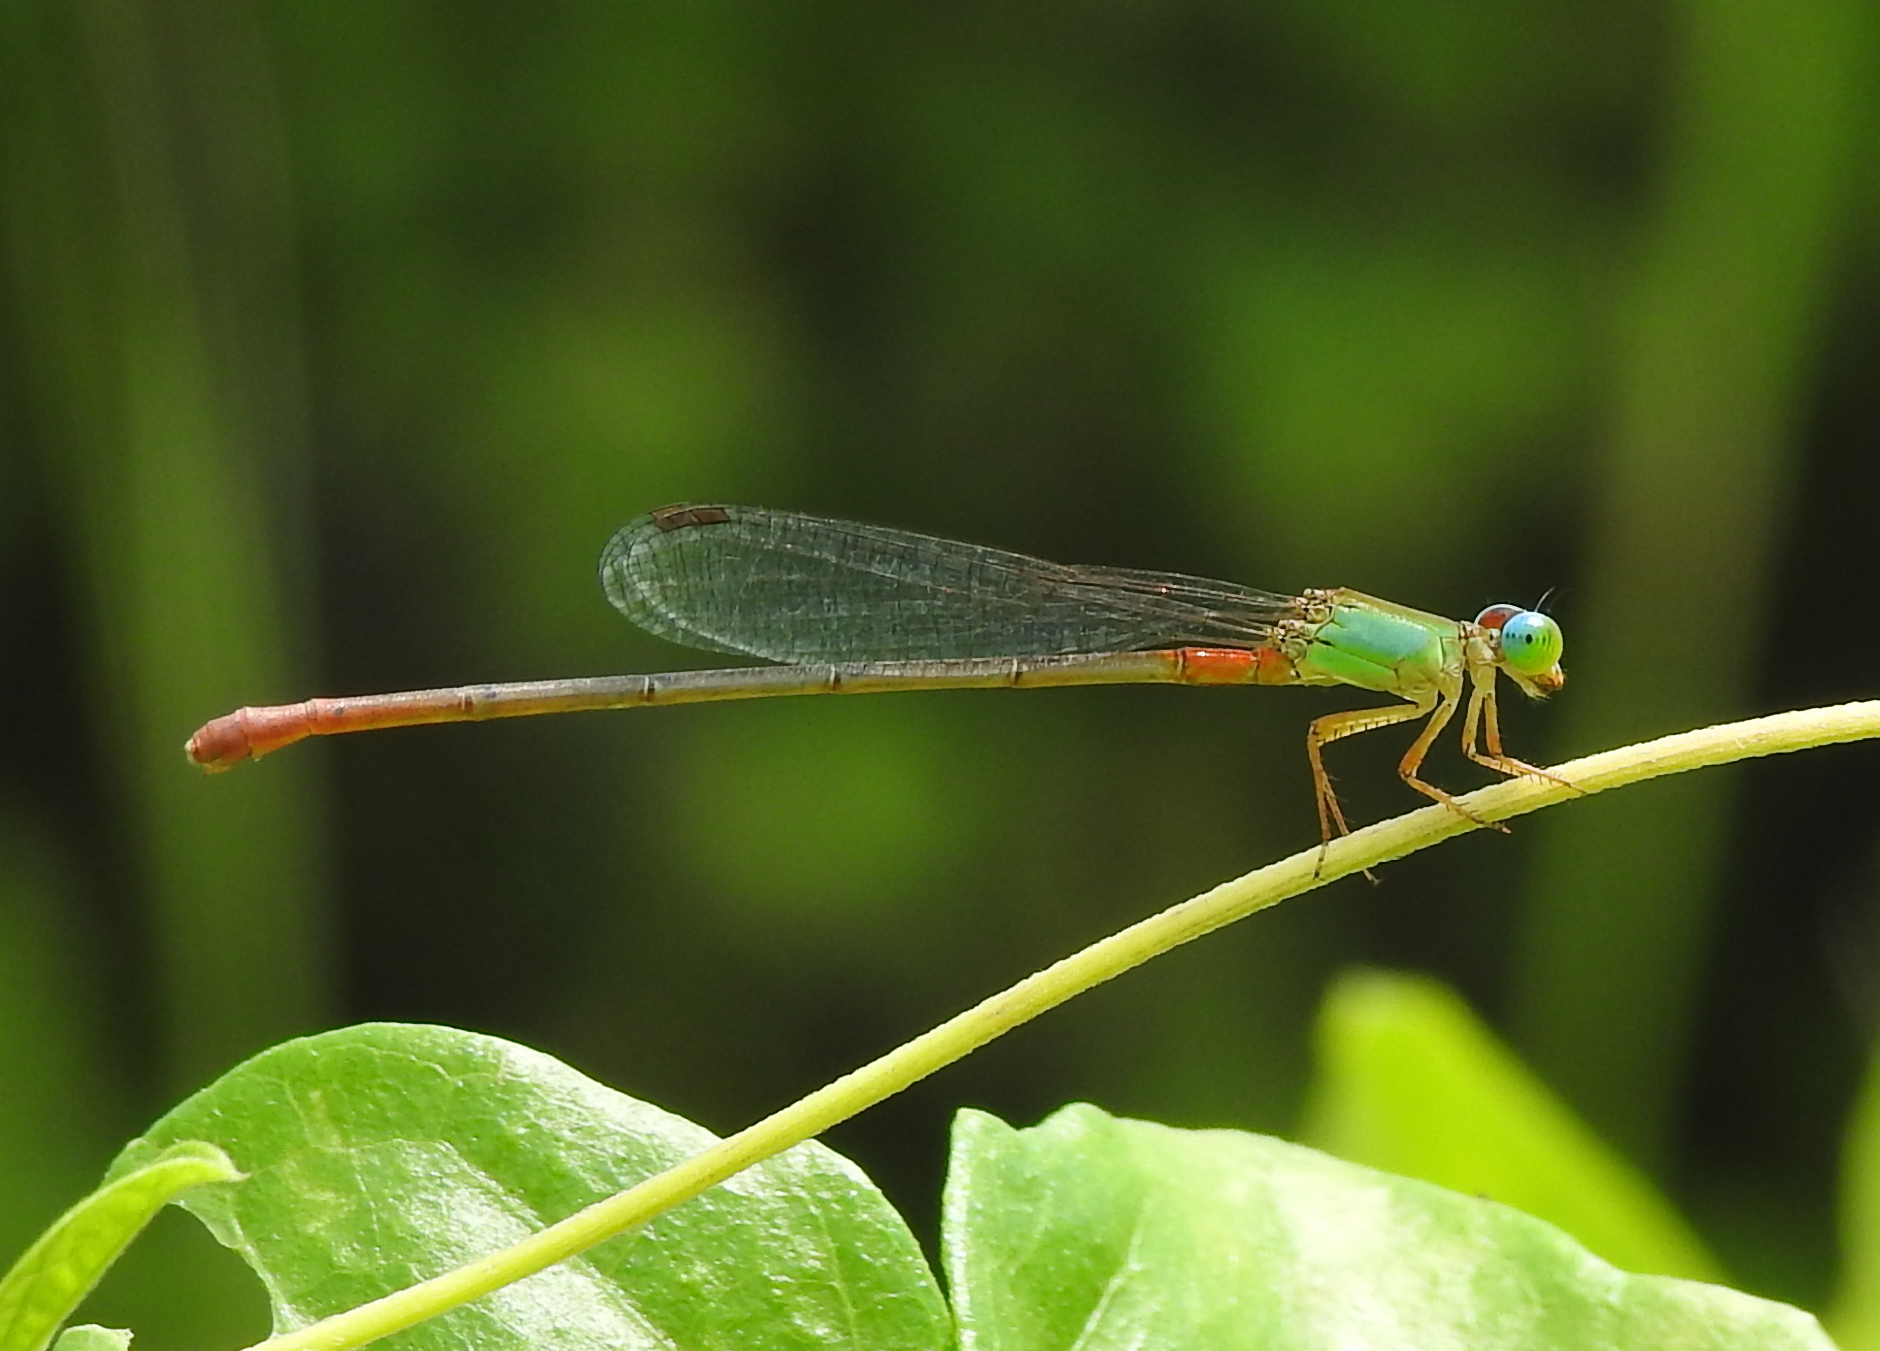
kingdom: Animalia
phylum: Arthropoda
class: Insecta
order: Odonata
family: Coenagrionidae
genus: Ceriagrion
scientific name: Ceriagrion cerinorubellum
